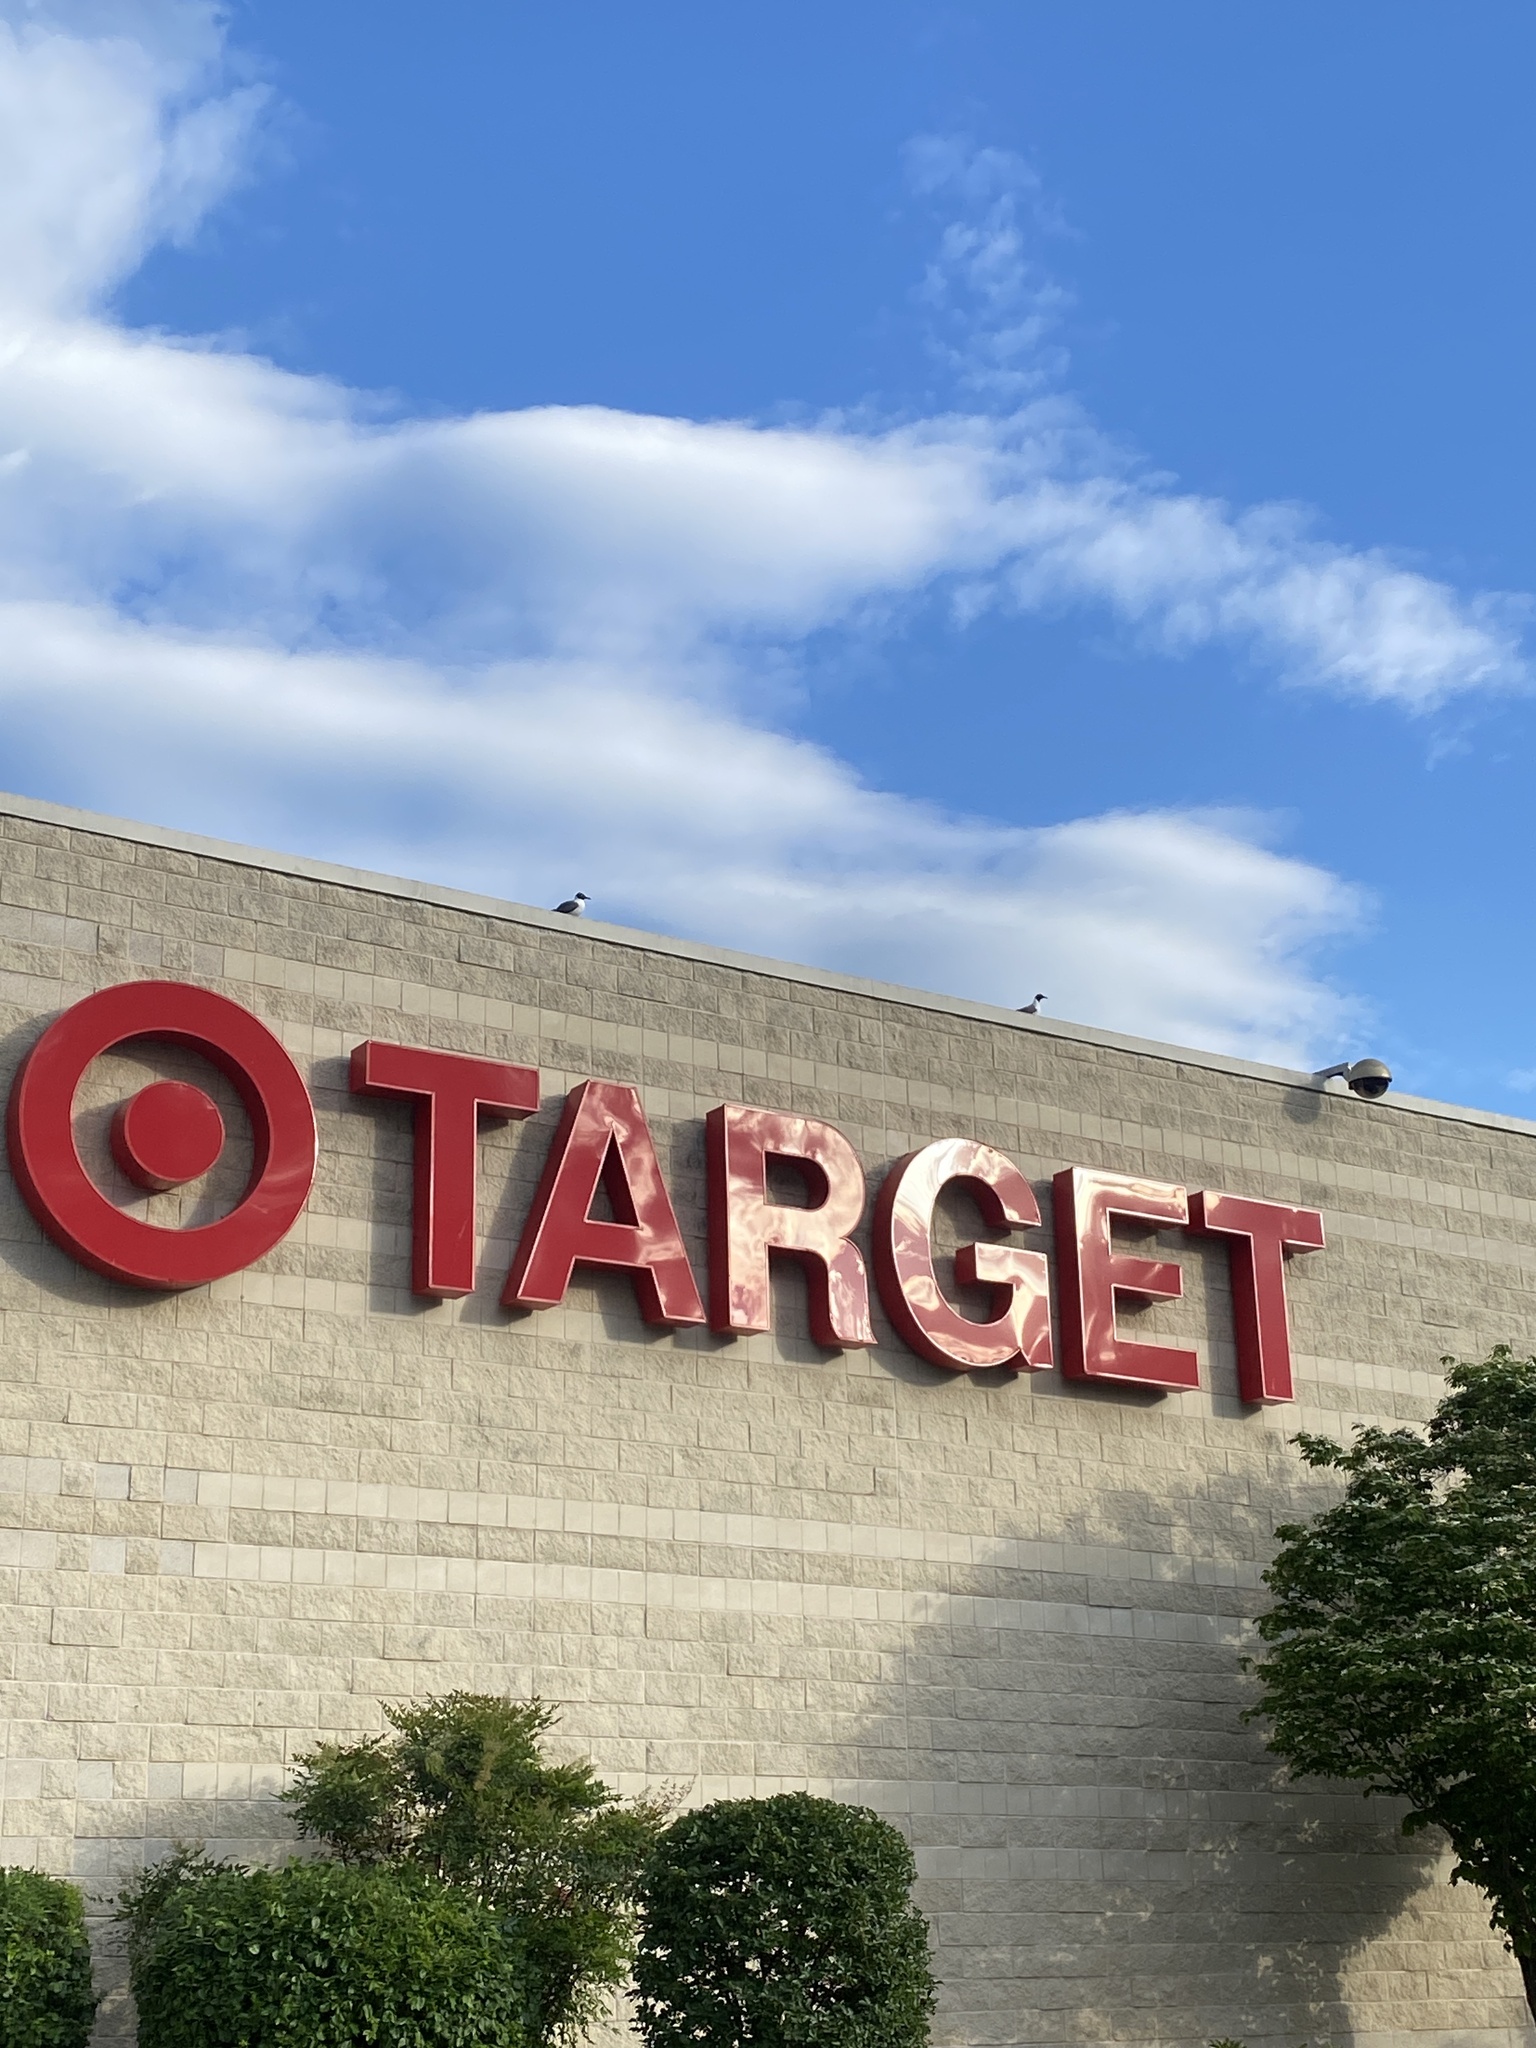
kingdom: Animalia
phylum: Chordata
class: Aves
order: Charadriiformes
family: Laridae
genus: Leucophaeus
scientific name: Leucophaeus atricilla
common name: Laughing gull
